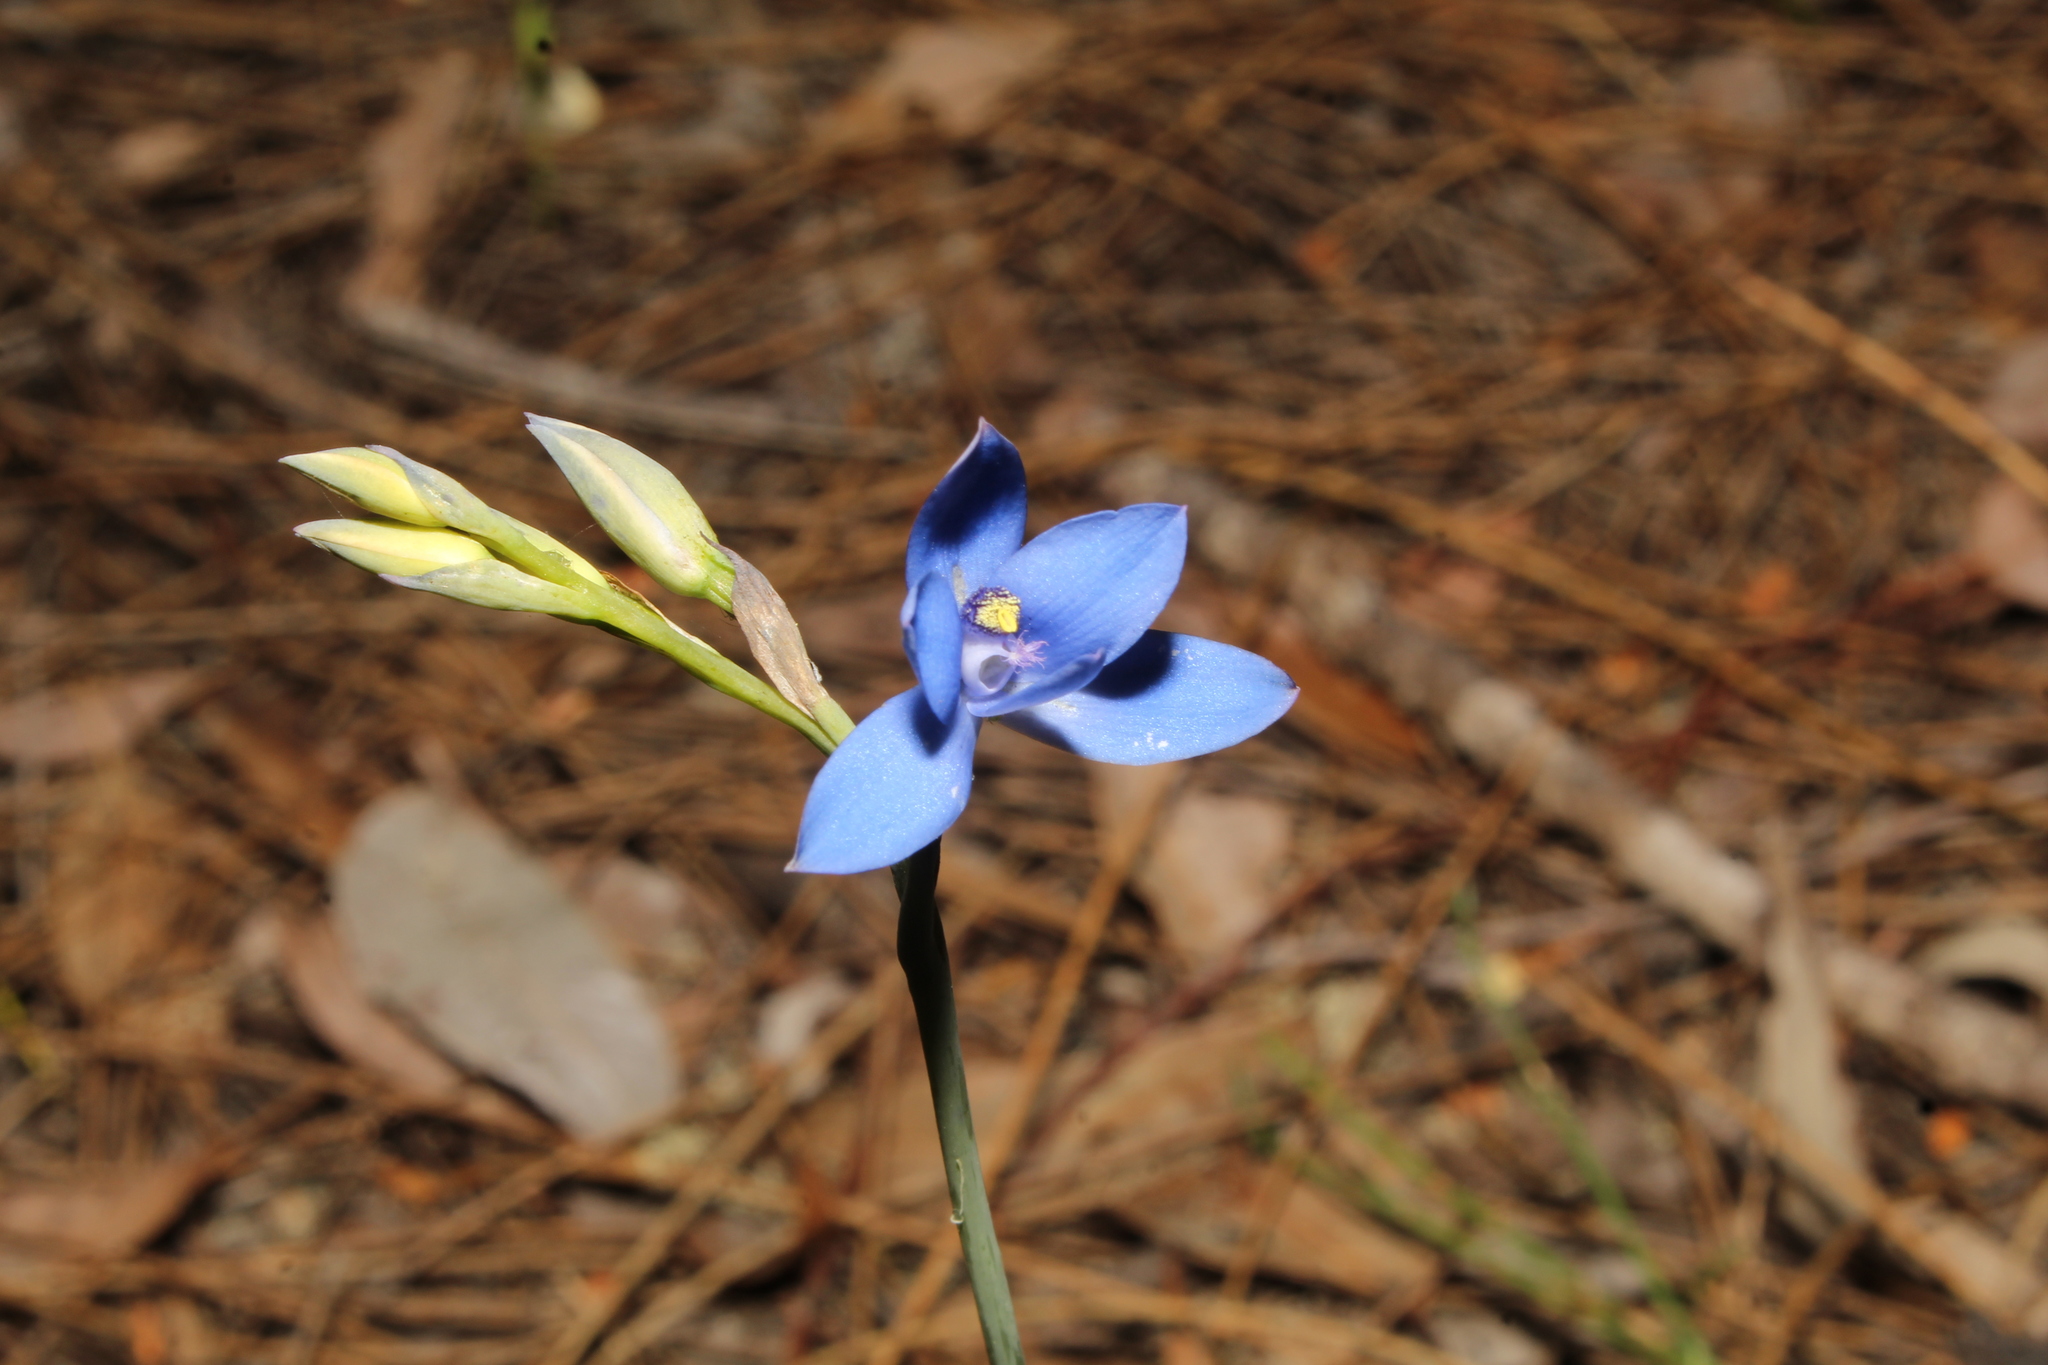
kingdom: Plantae
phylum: Tracheophyta
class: Liliopsida
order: Asparagales
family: Orchidaceae
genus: Thelymitra
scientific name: Thelymitra crinita
